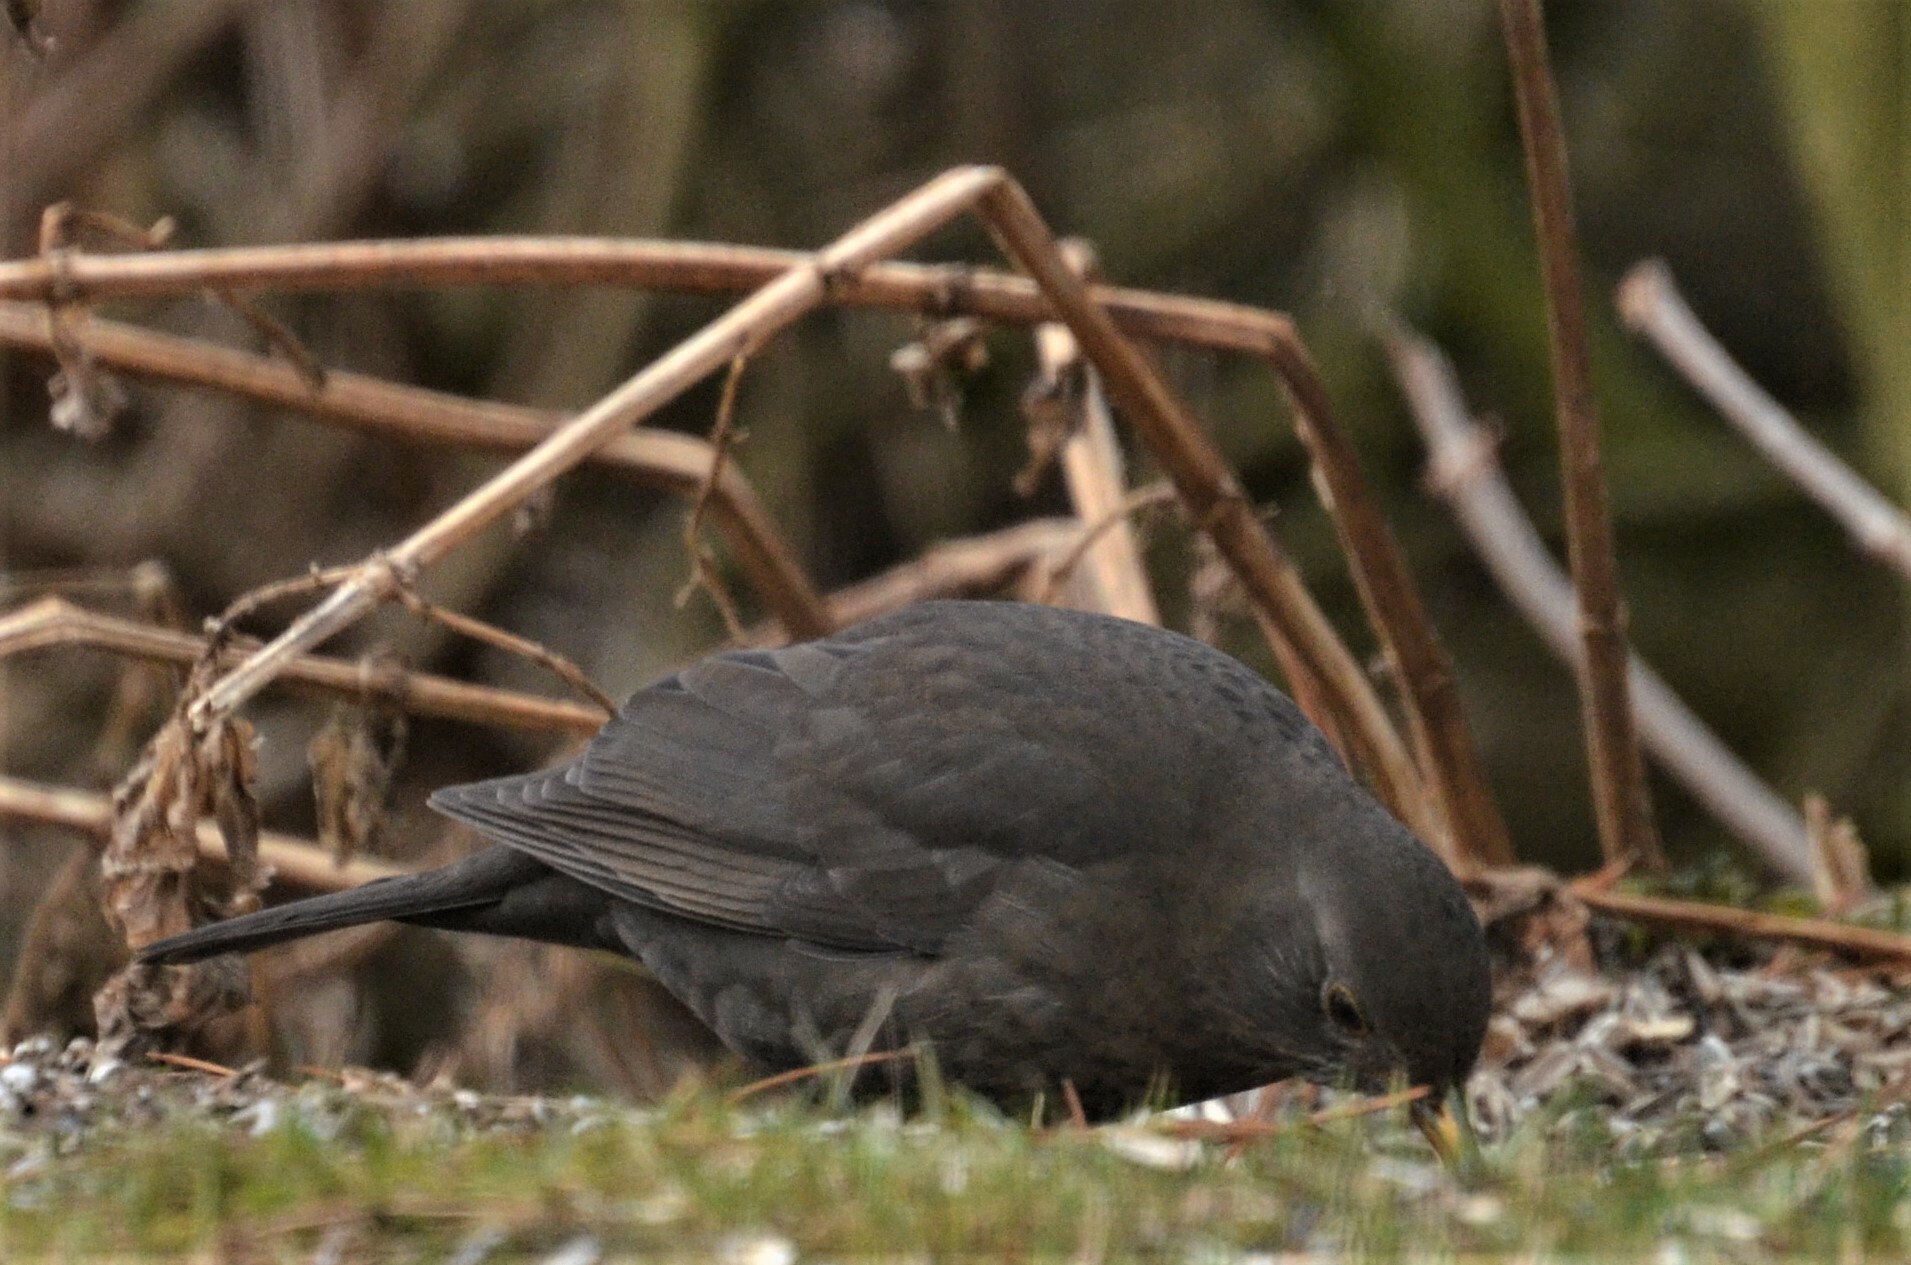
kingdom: Animalia
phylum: Chordata
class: Aves
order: Passeriformes
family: Turdidae
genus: Turdus
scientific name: Turdus merula
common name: Common blackbird
